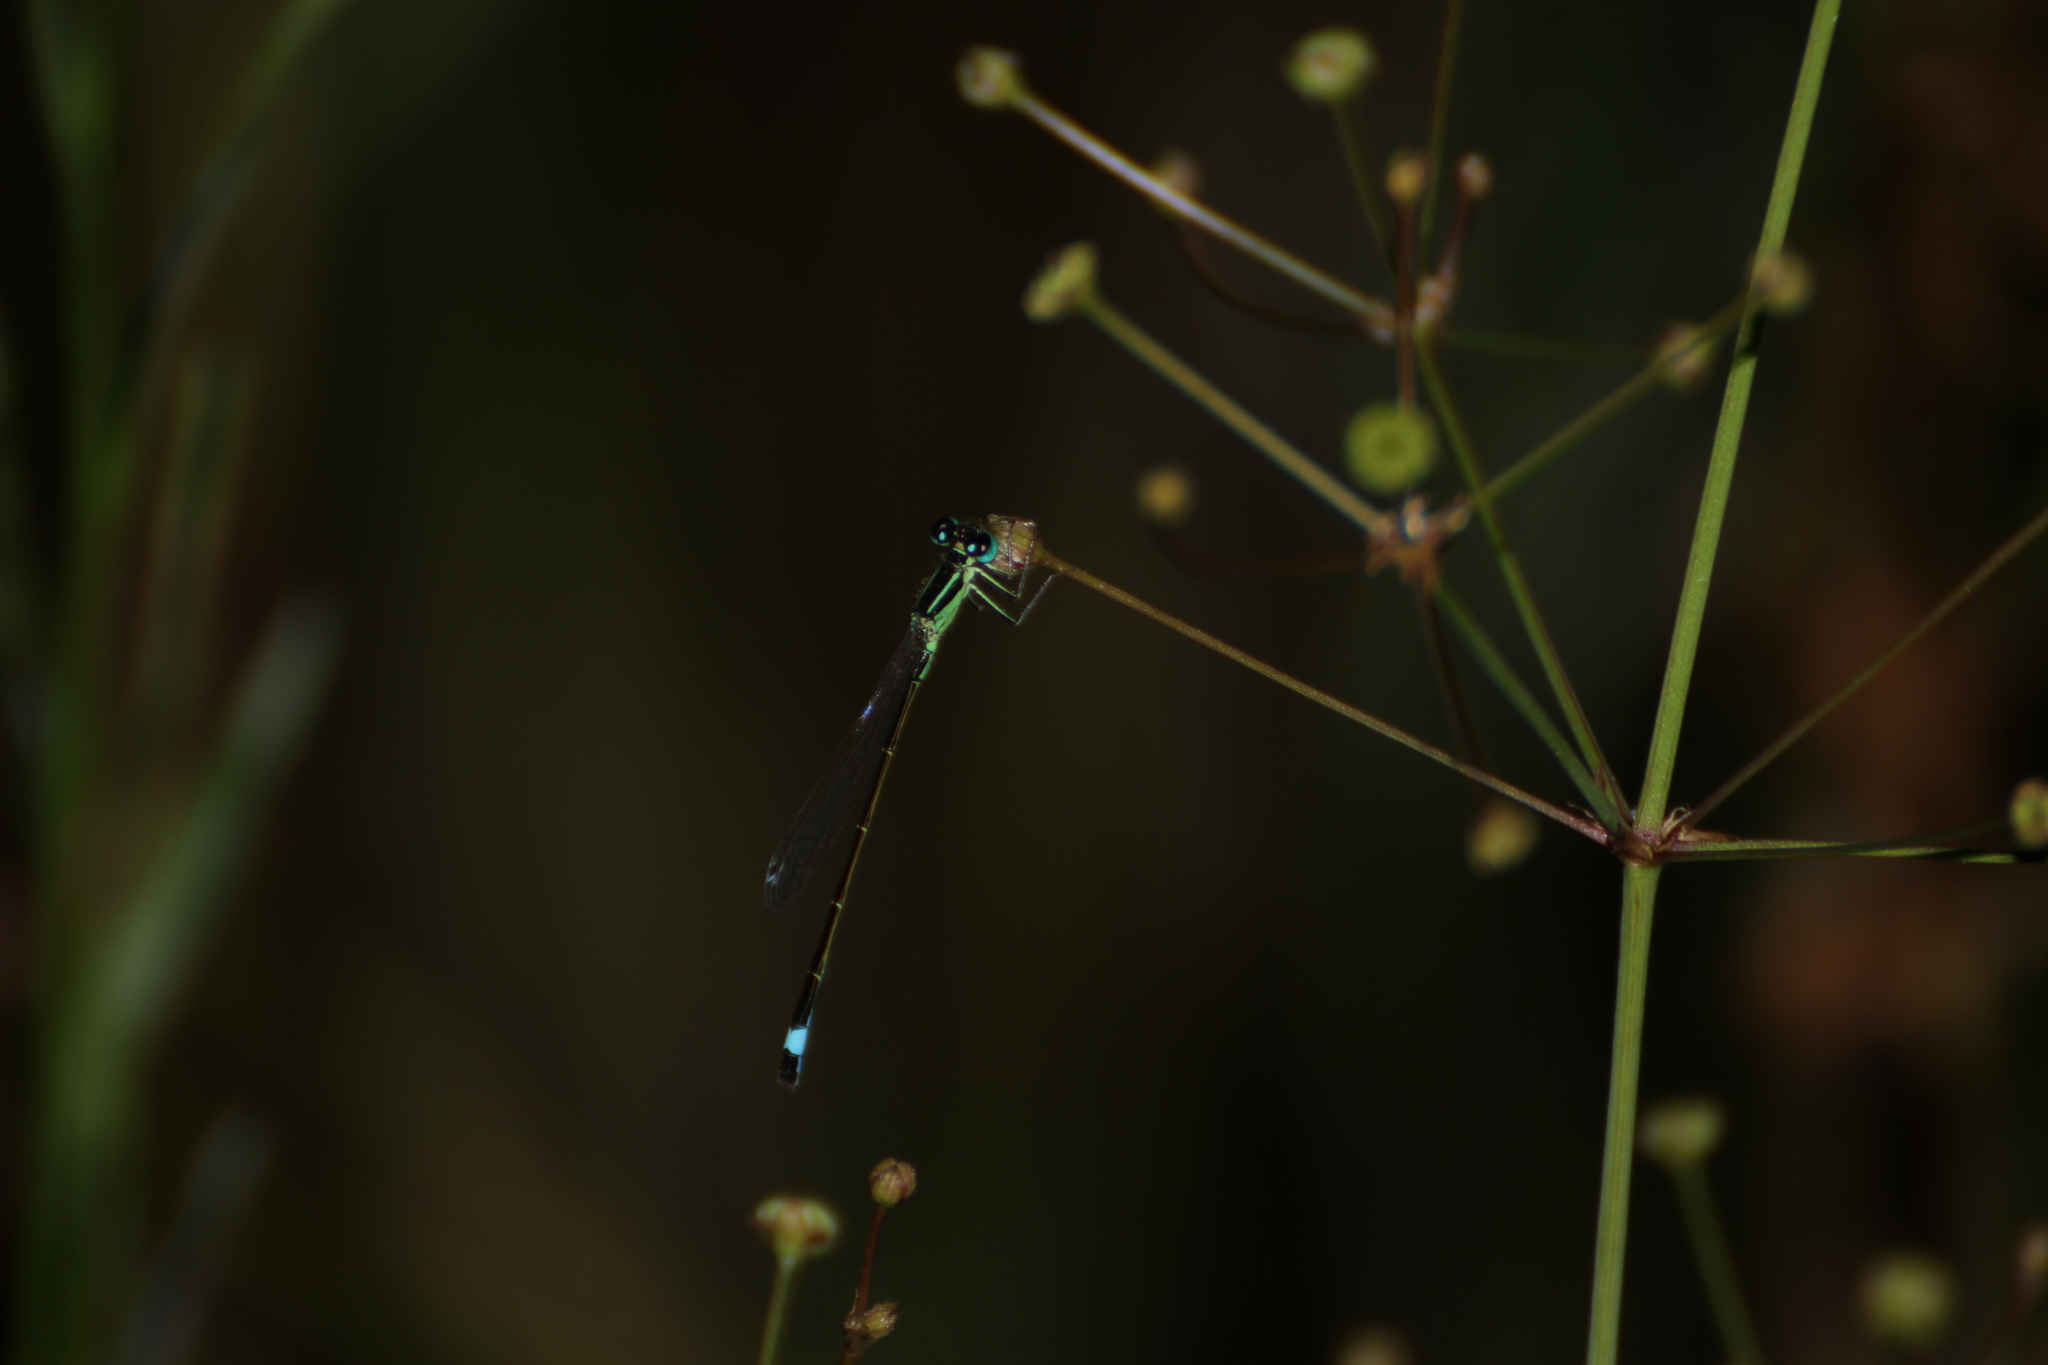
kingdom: Animalia
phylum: Arthropoda
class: Insecta
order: Odonata
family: Coenagrionidae
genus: Ischnura
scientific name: Ischnura elegans
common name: Blue-tailed damselfly
